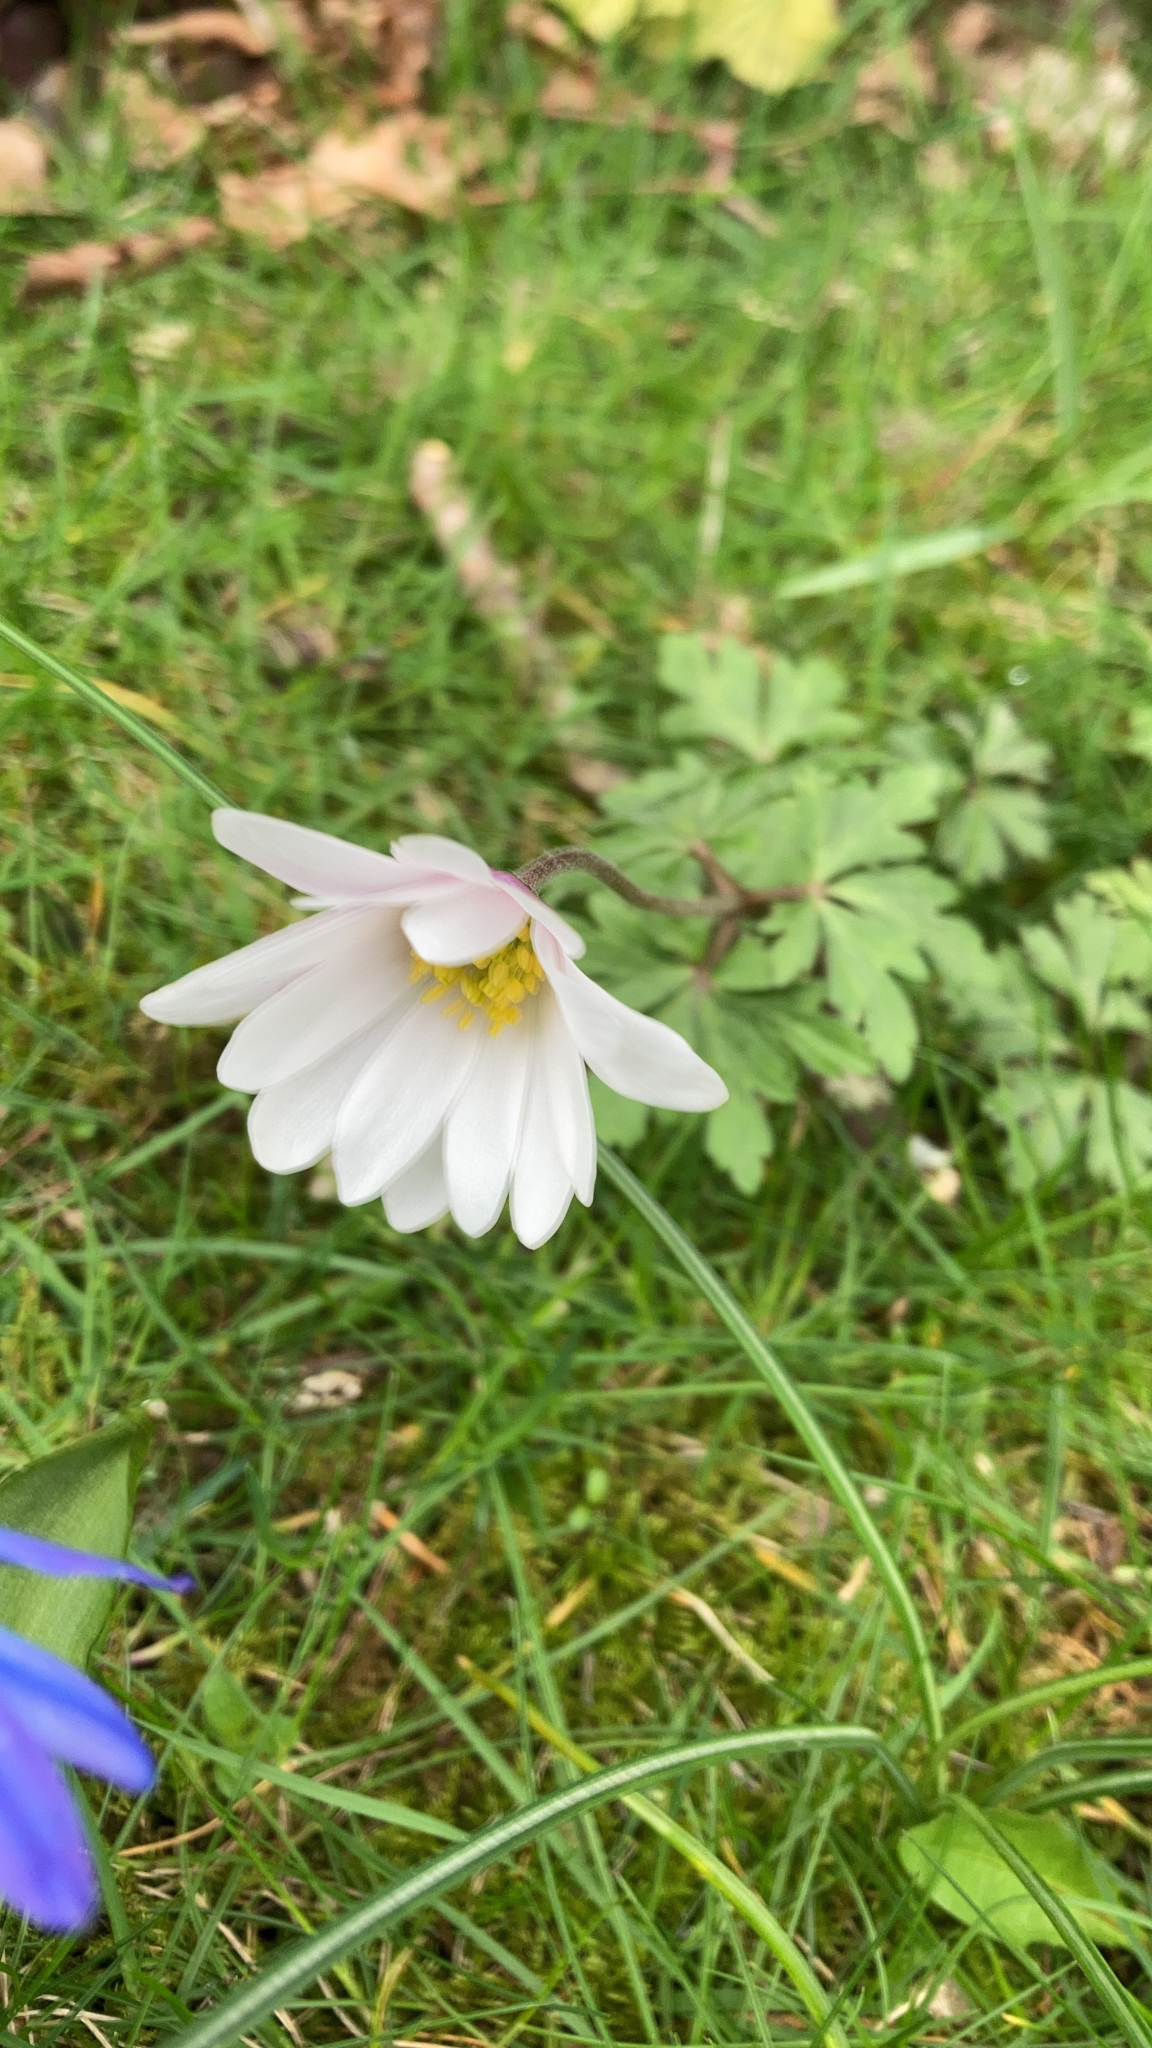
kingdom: Plantae
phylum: Tracheophyta
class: Magnoliopsida
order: Ranunculales
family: Ranunculaceae
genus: Anemone
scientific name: Anemone blanda
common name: Balkan anemone
